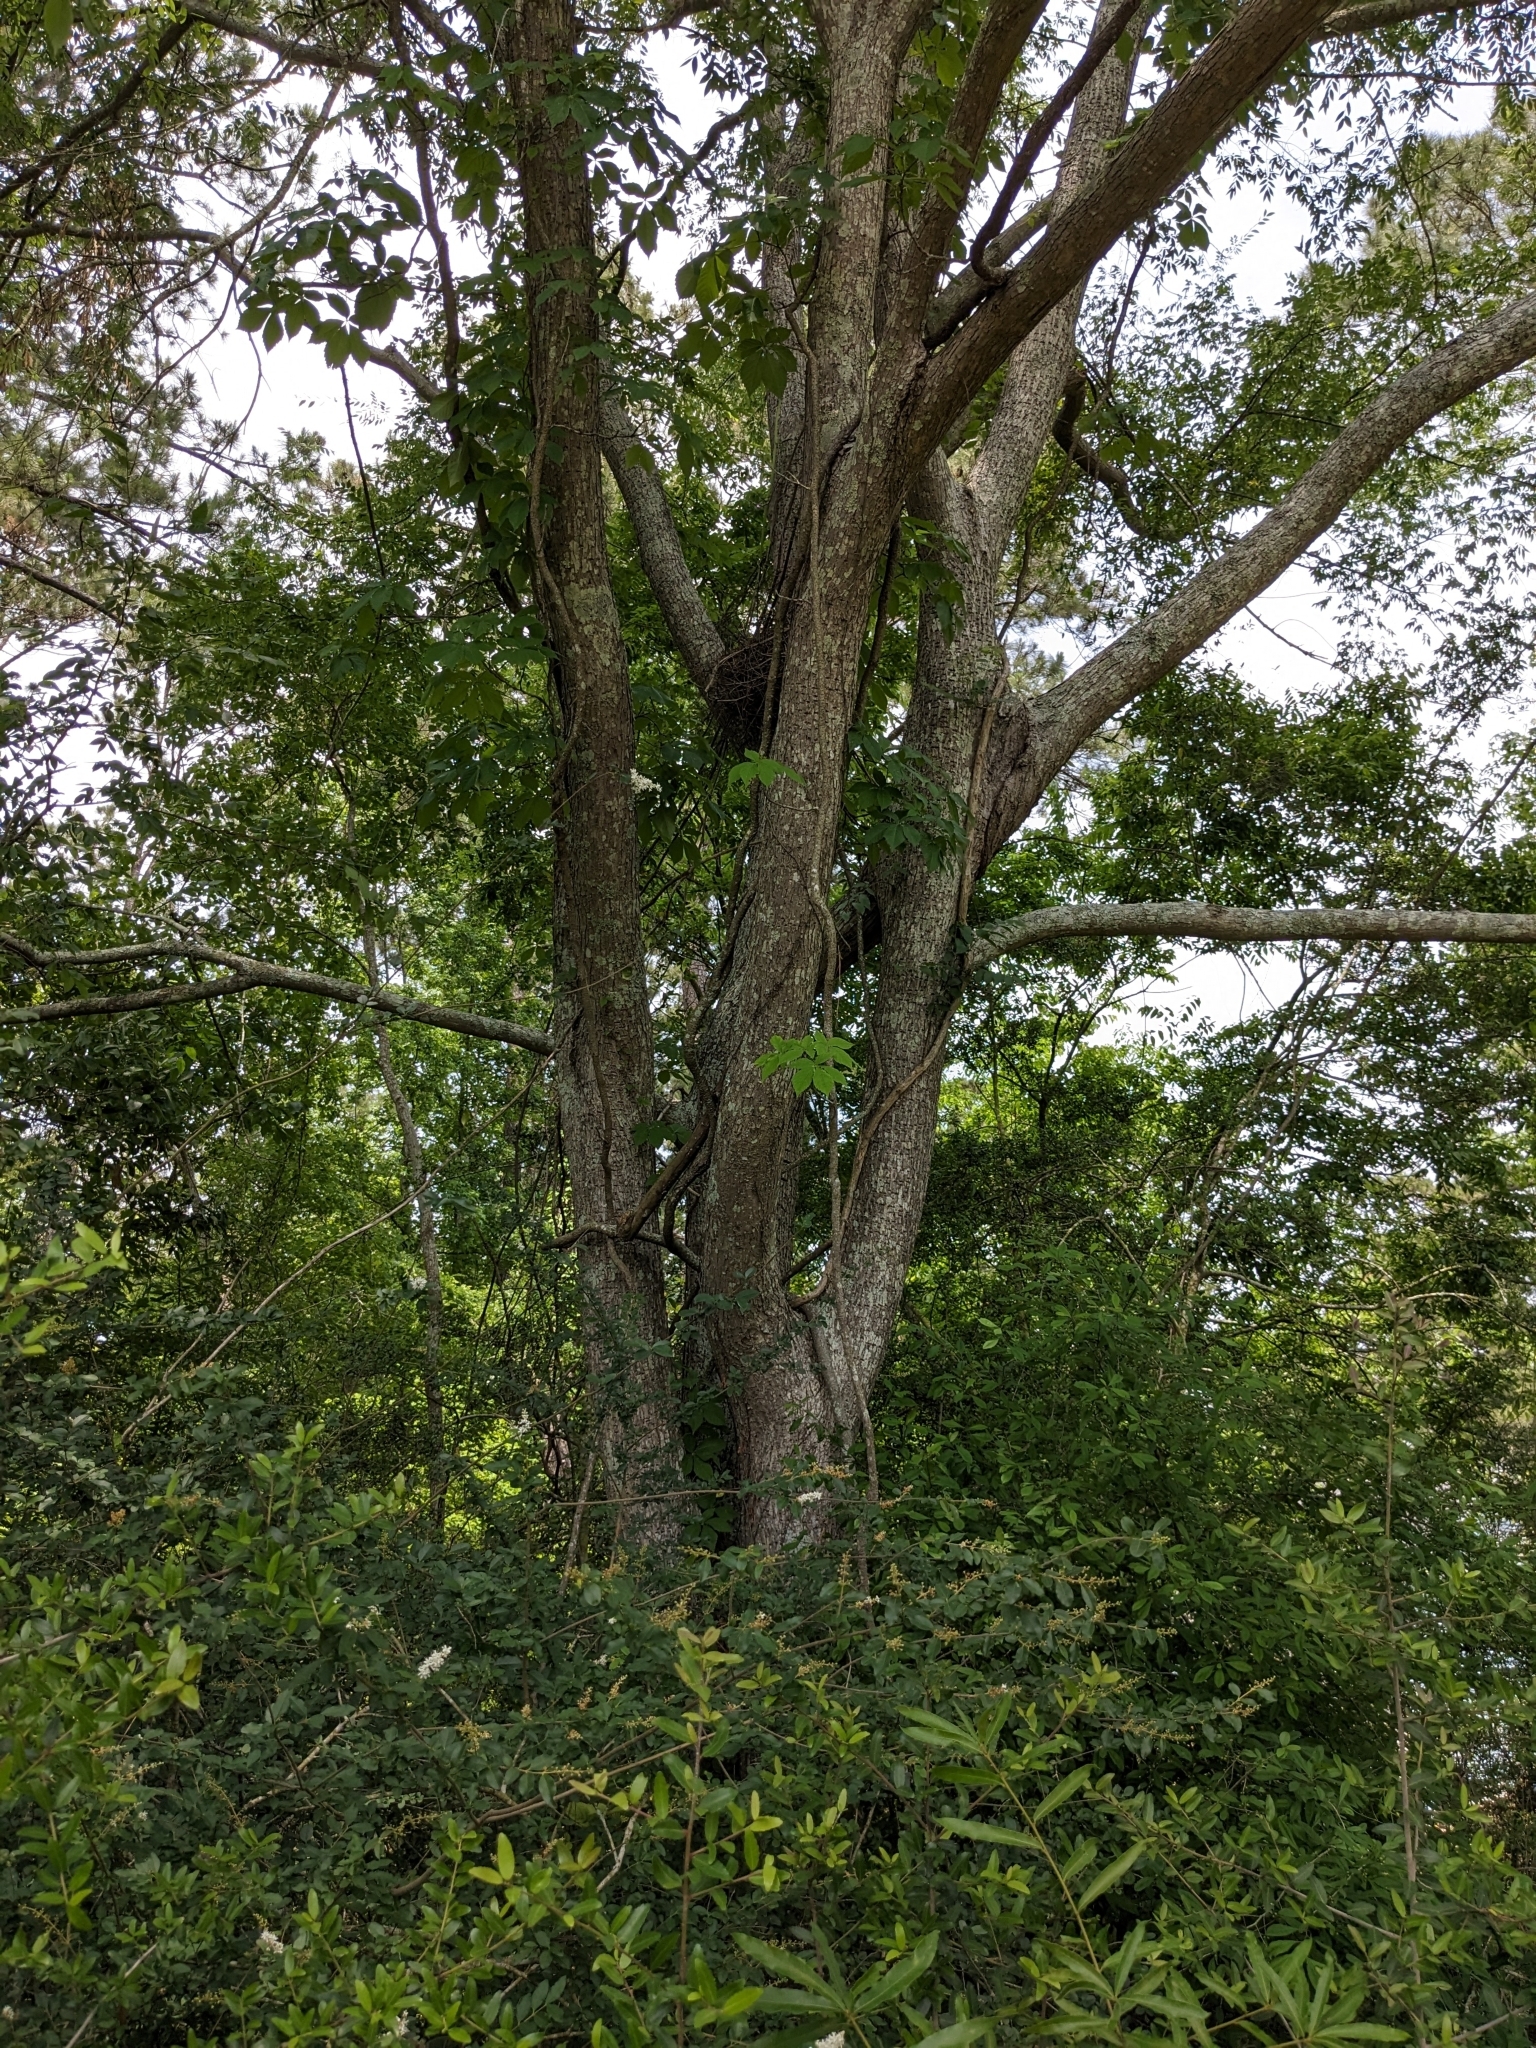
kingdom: Plantae
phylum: Tracheophyta
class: Magnoliopsida
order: Vitales
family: Vitaceae
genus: Parthenocissus
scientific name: Parthenocissus quinquefolia
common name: Virginia-creeper
